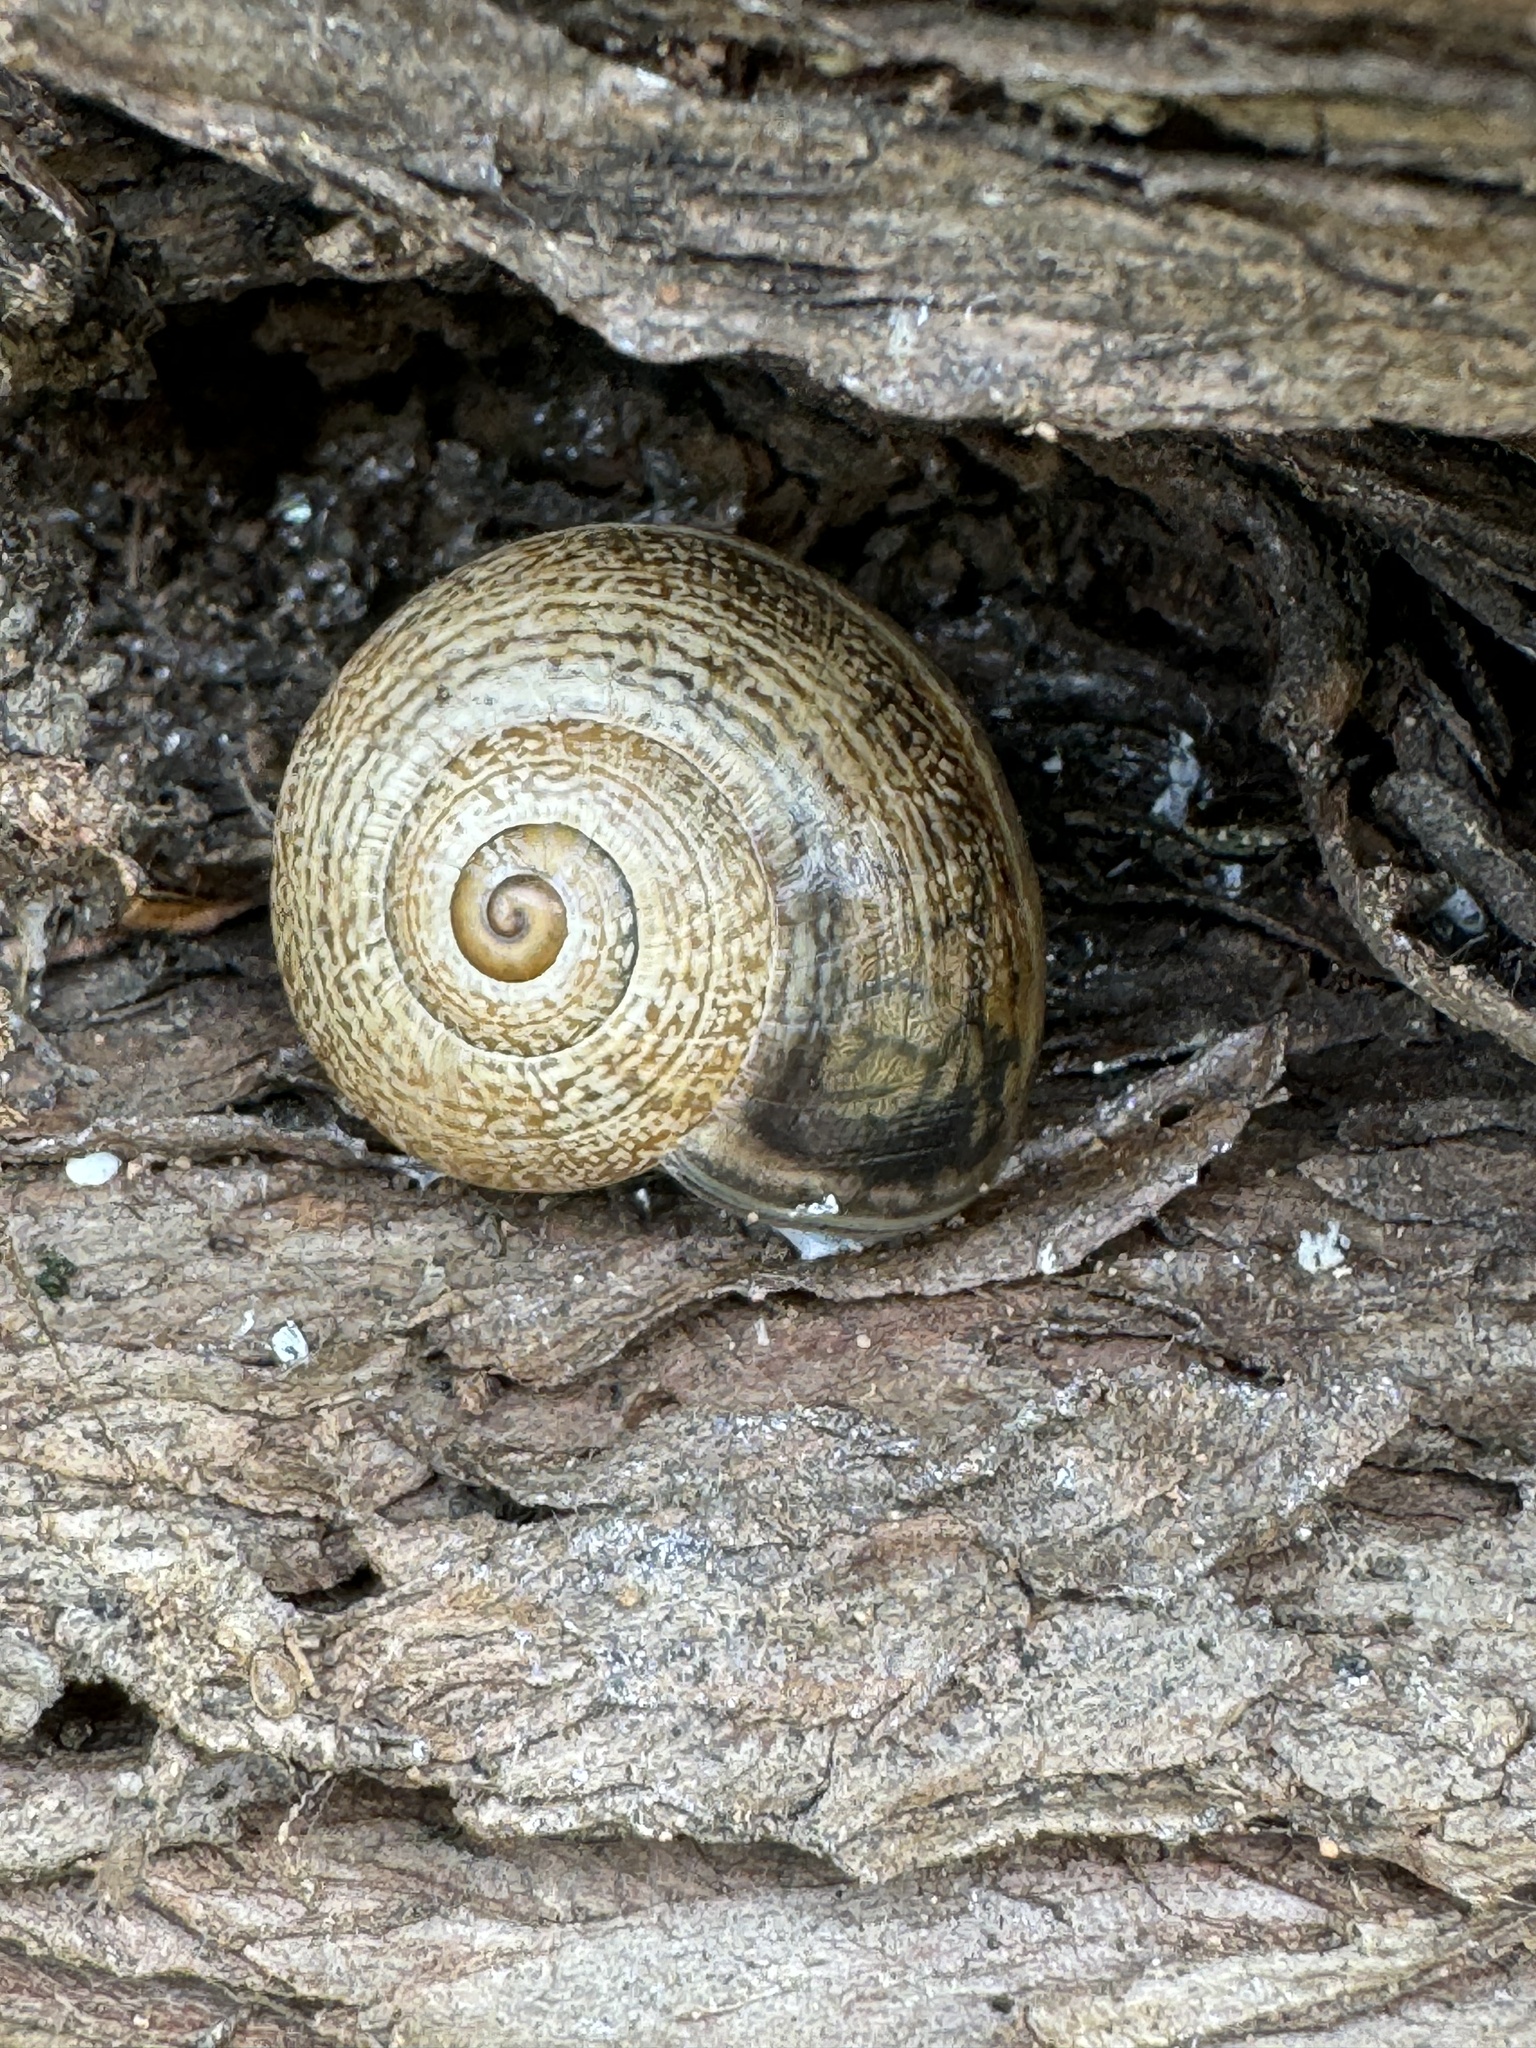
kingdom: Animalia
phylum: Mollusca
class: Gastropoda
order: Stylommatophora
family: Helicidae
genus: Otala
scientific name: Otala lactea
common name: Milk snail
